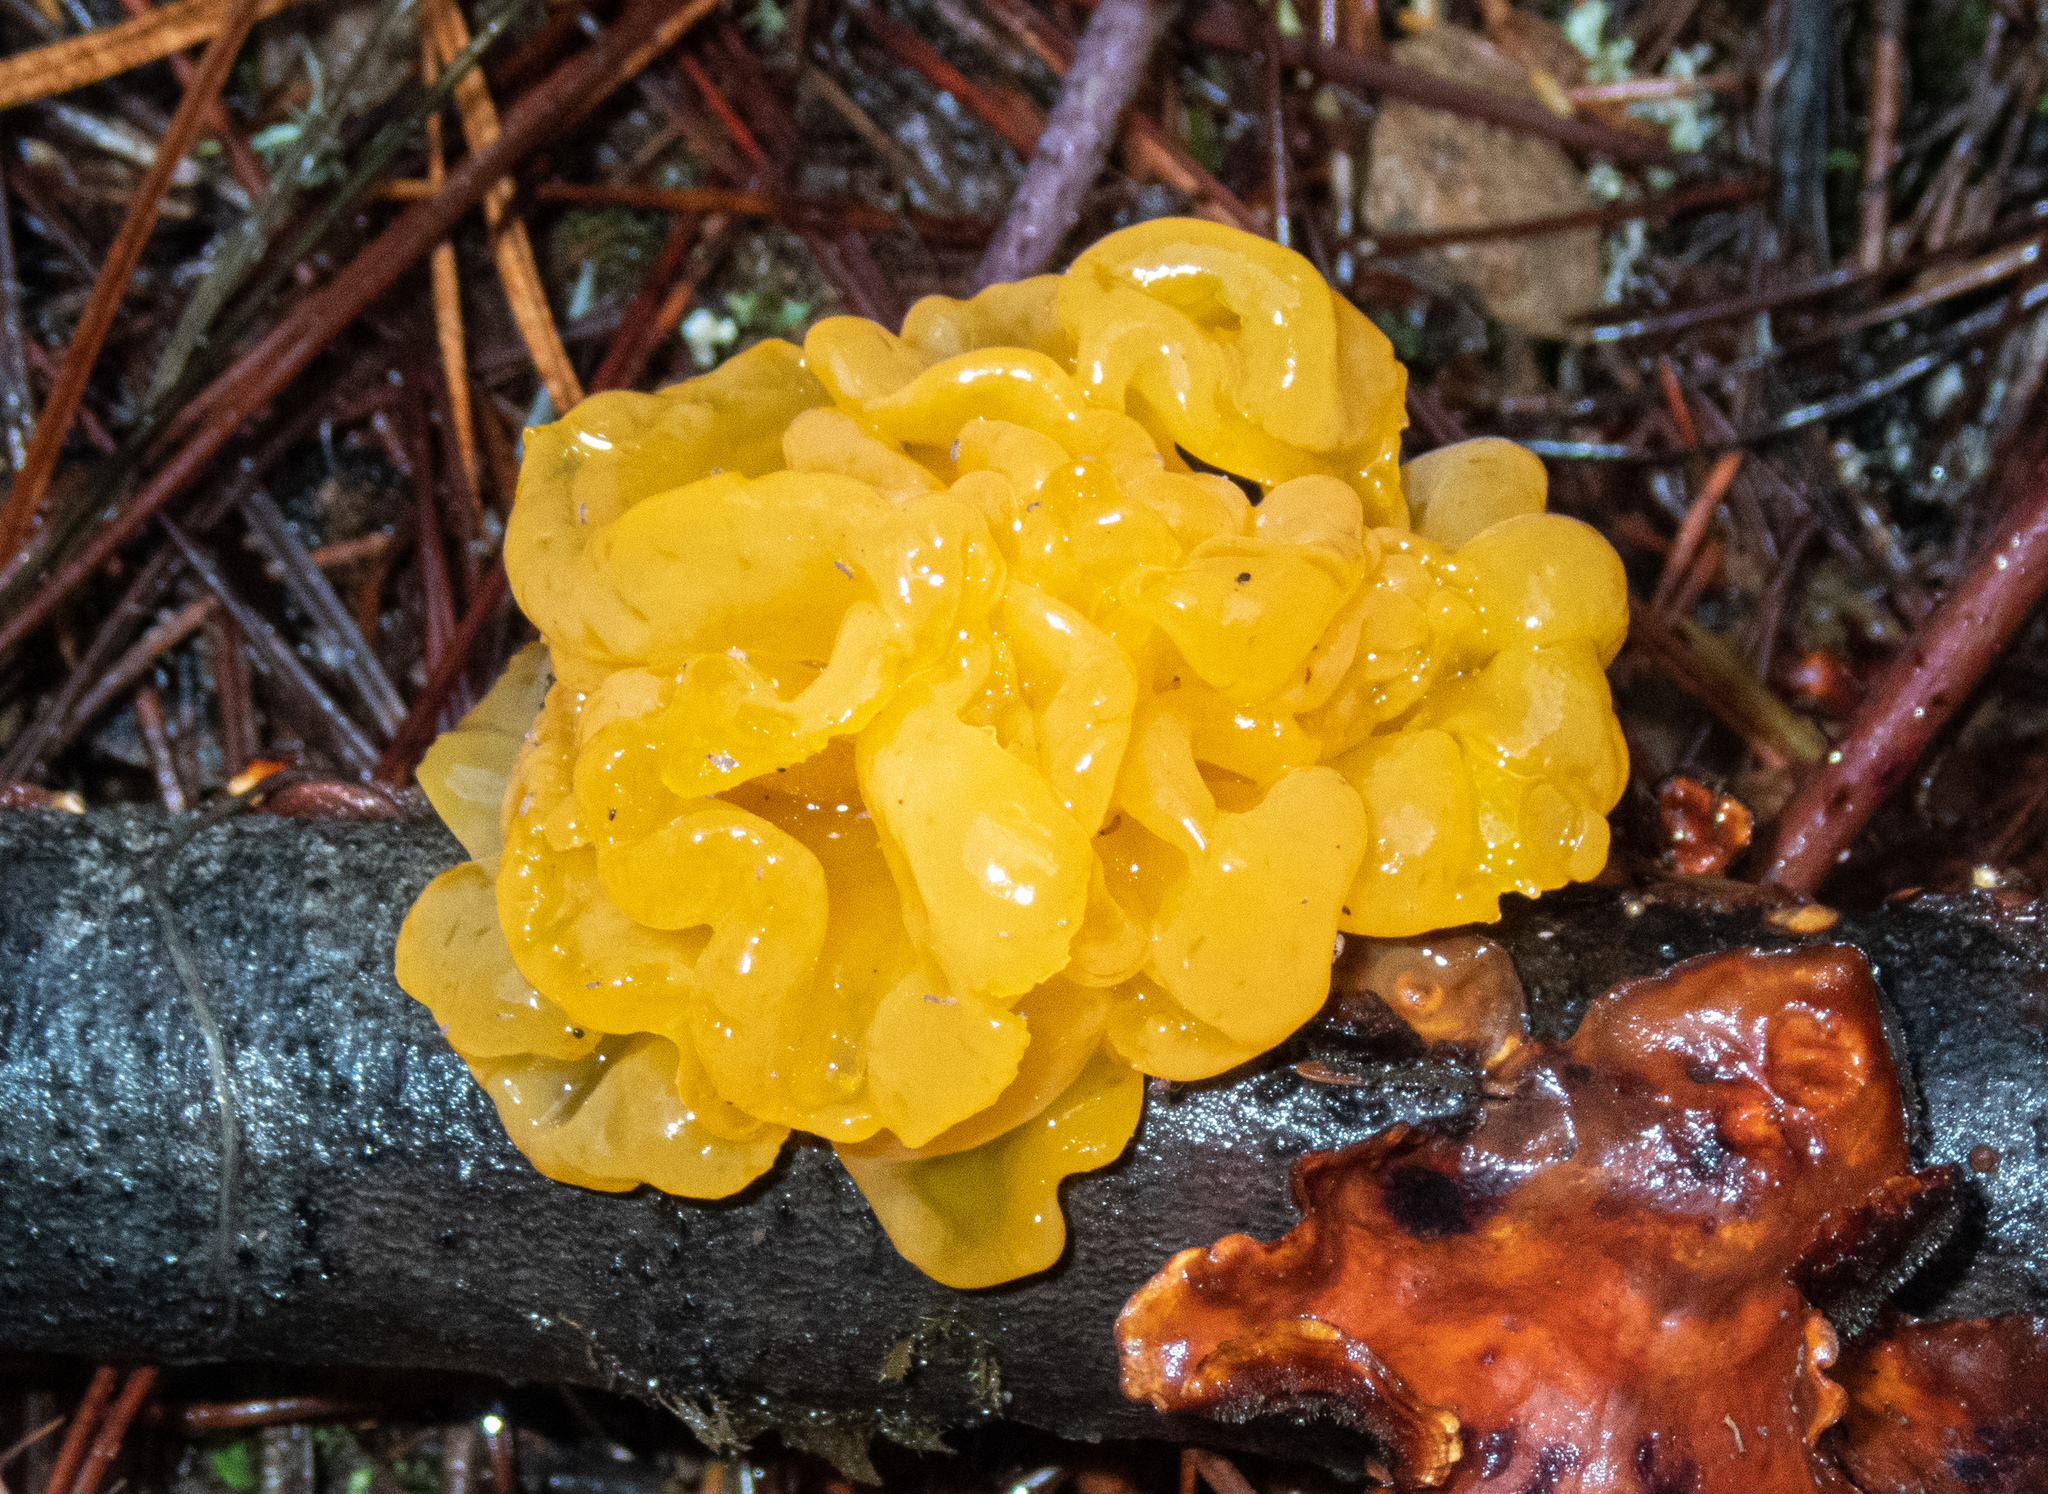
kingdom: Fungi
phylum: Basidiomycota
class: Tremellomycetes
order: Tremellales
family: Naemateliaceae
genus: Naematelia
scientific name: Naematelia aurantia
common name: Golden ear
